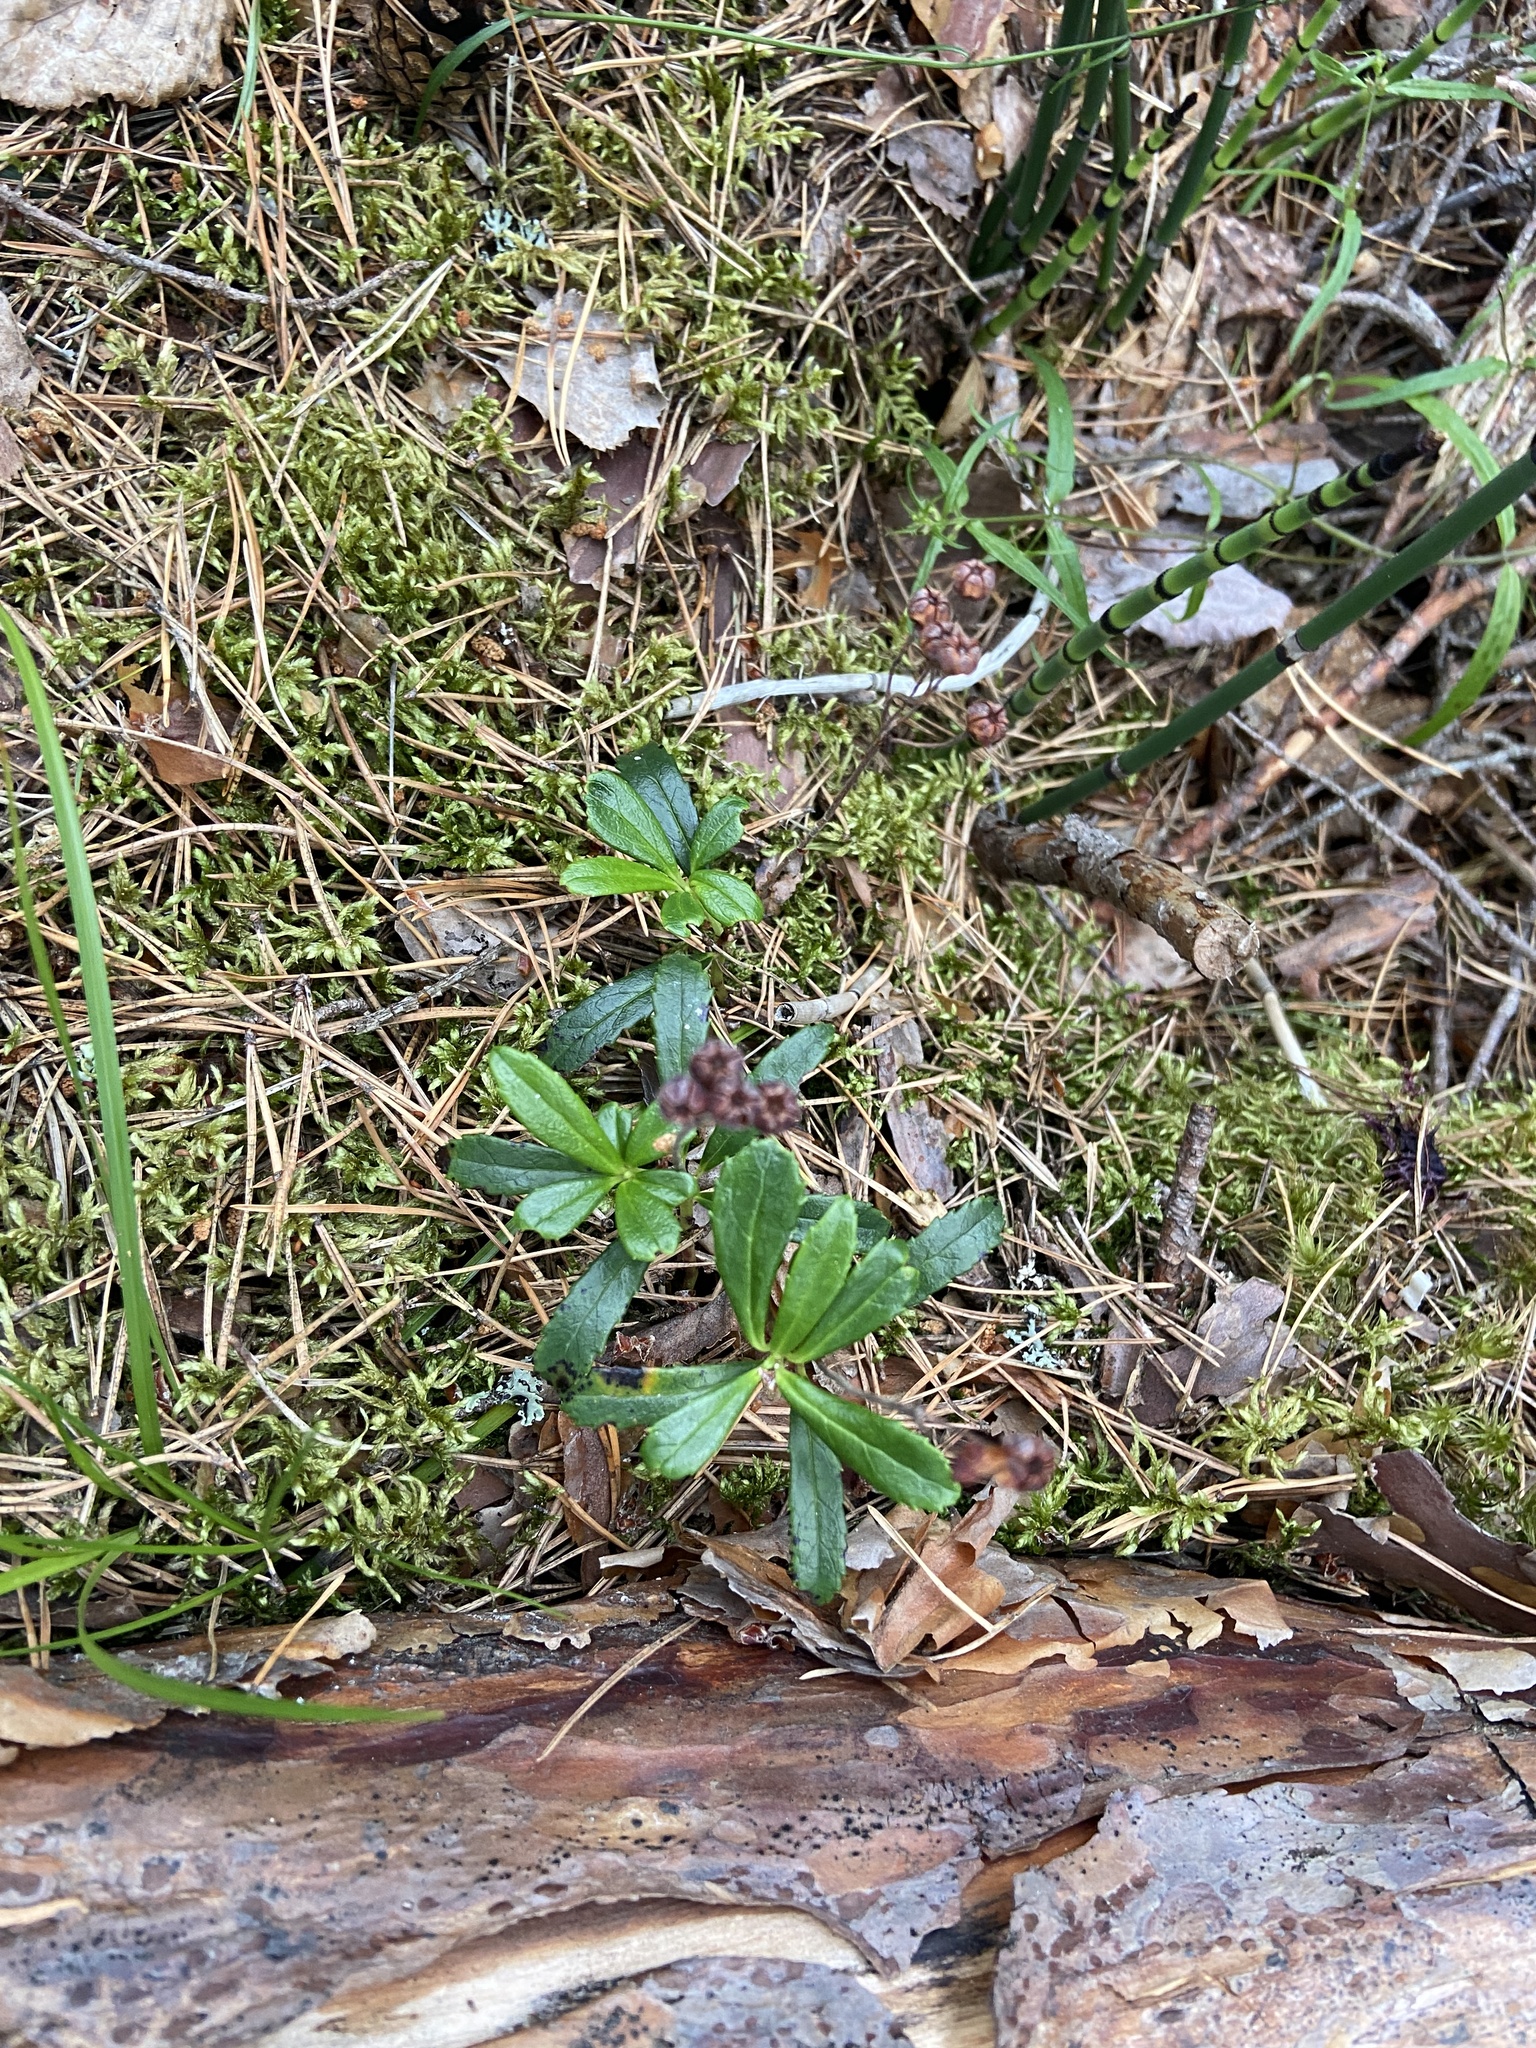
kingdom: Plantae
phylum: Tracheophyta
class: Magnoliopsida
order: Ericales
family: Ericaceae
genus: Chimaphila
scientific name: Chimaphila umbellata
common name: Pipsissewa
